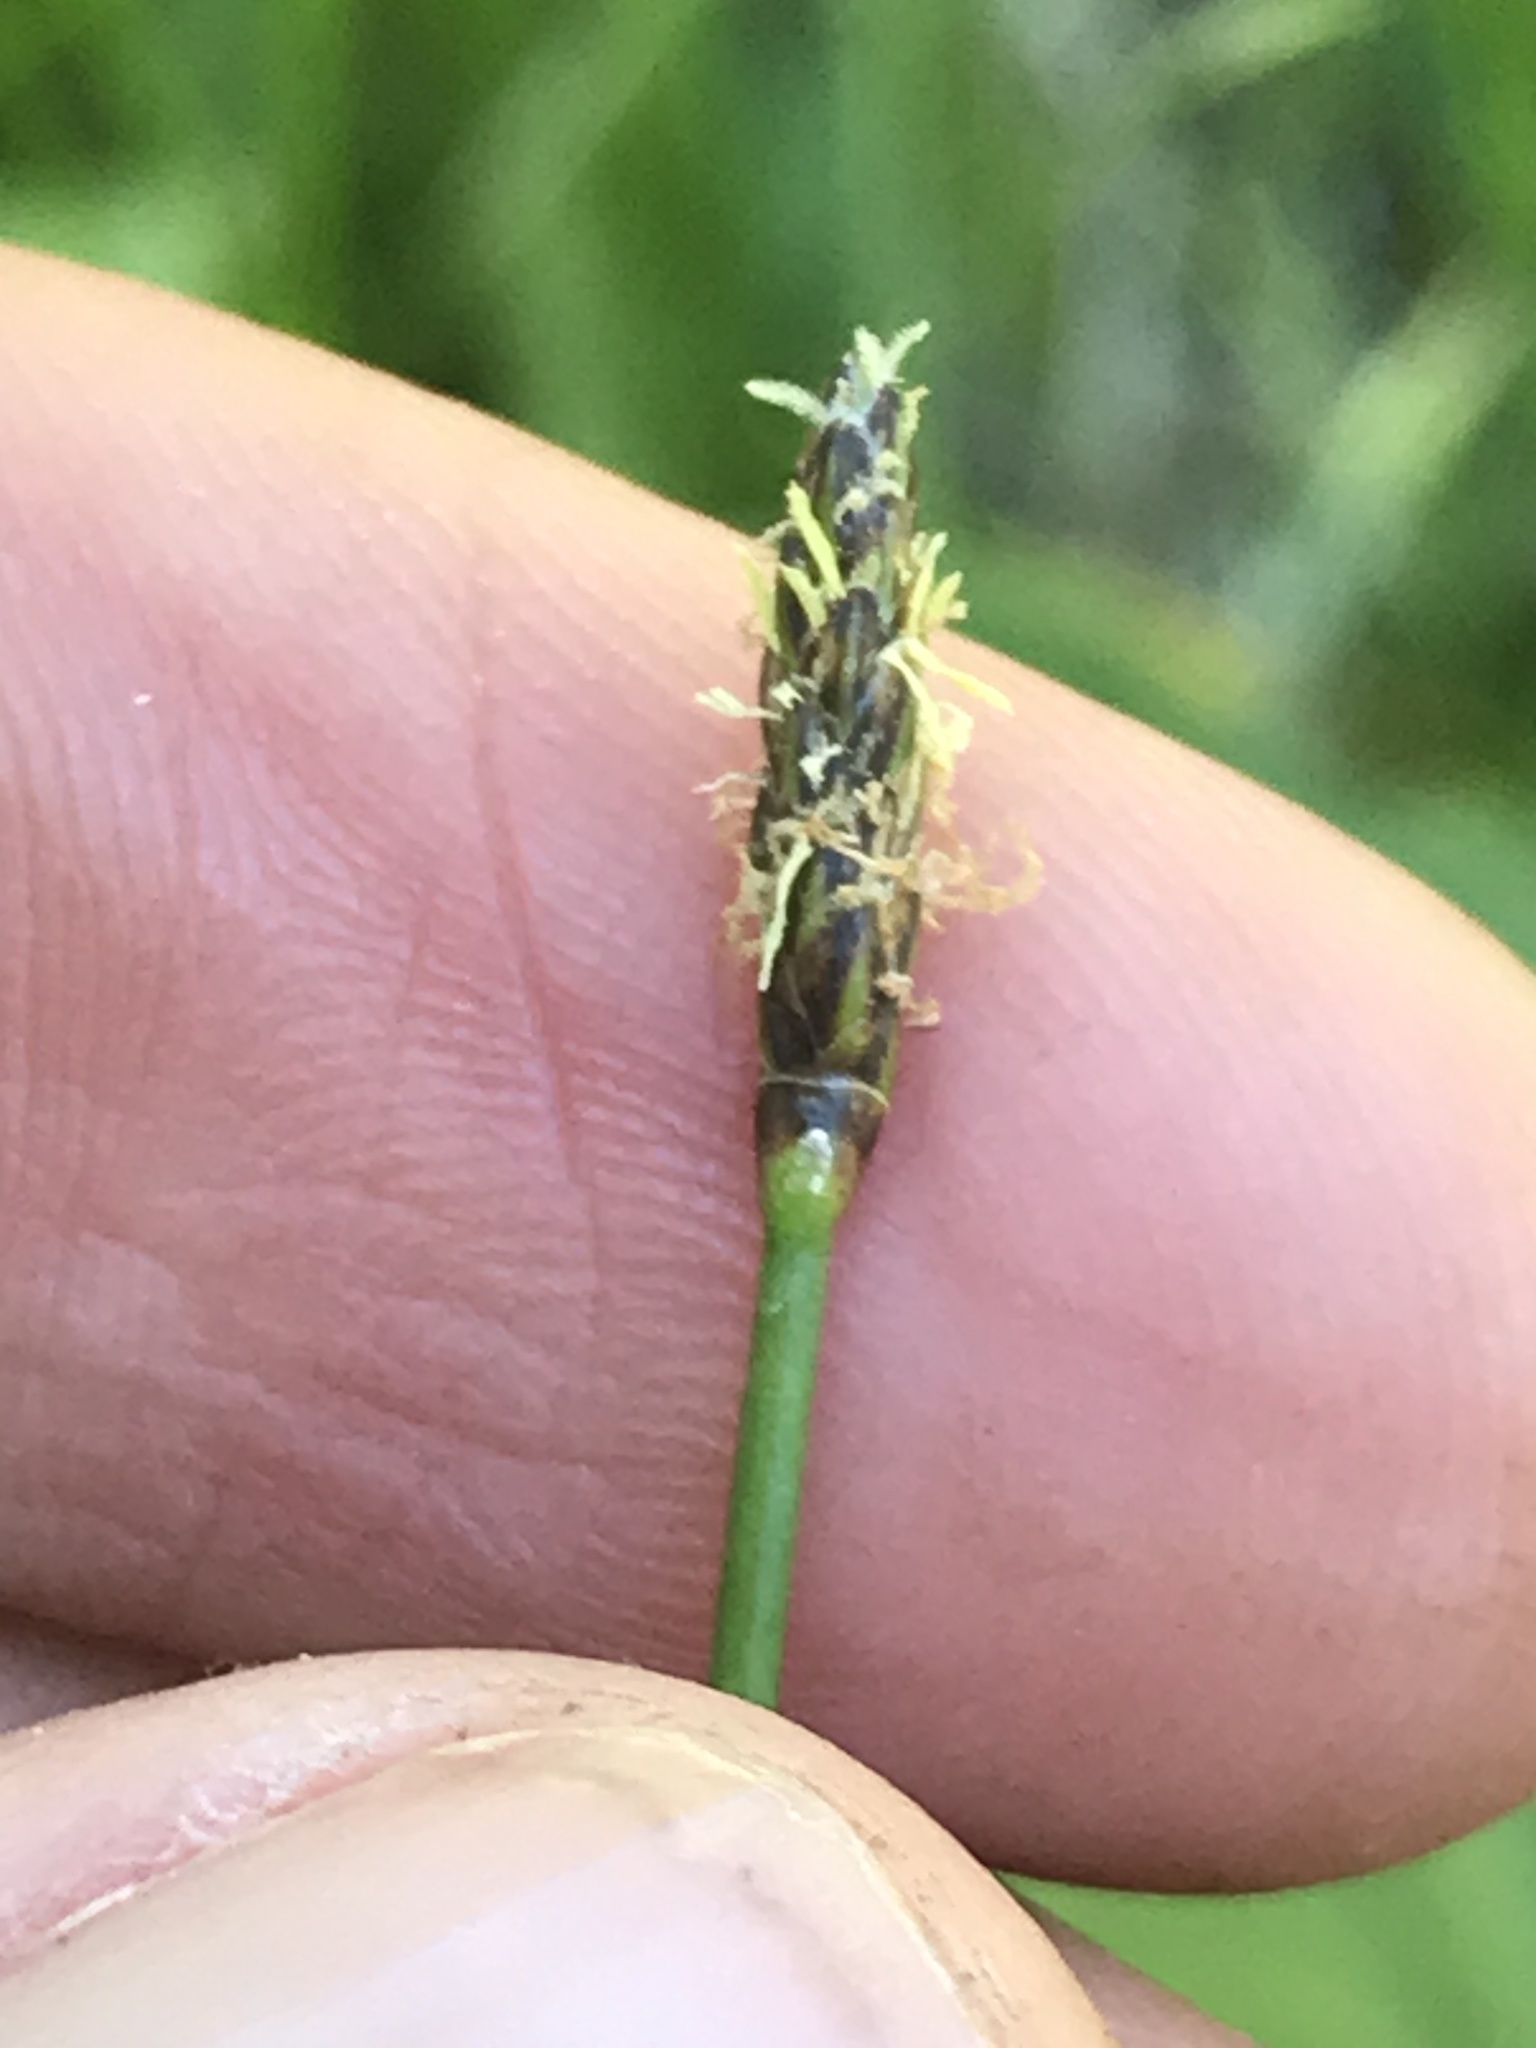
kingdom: Plantae
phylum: Tracheophyta
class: Liliopsida
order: Poales
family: Cyperaceae
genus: Eleocharis
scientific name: Eleocharis palustris
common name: Common spike-rush
